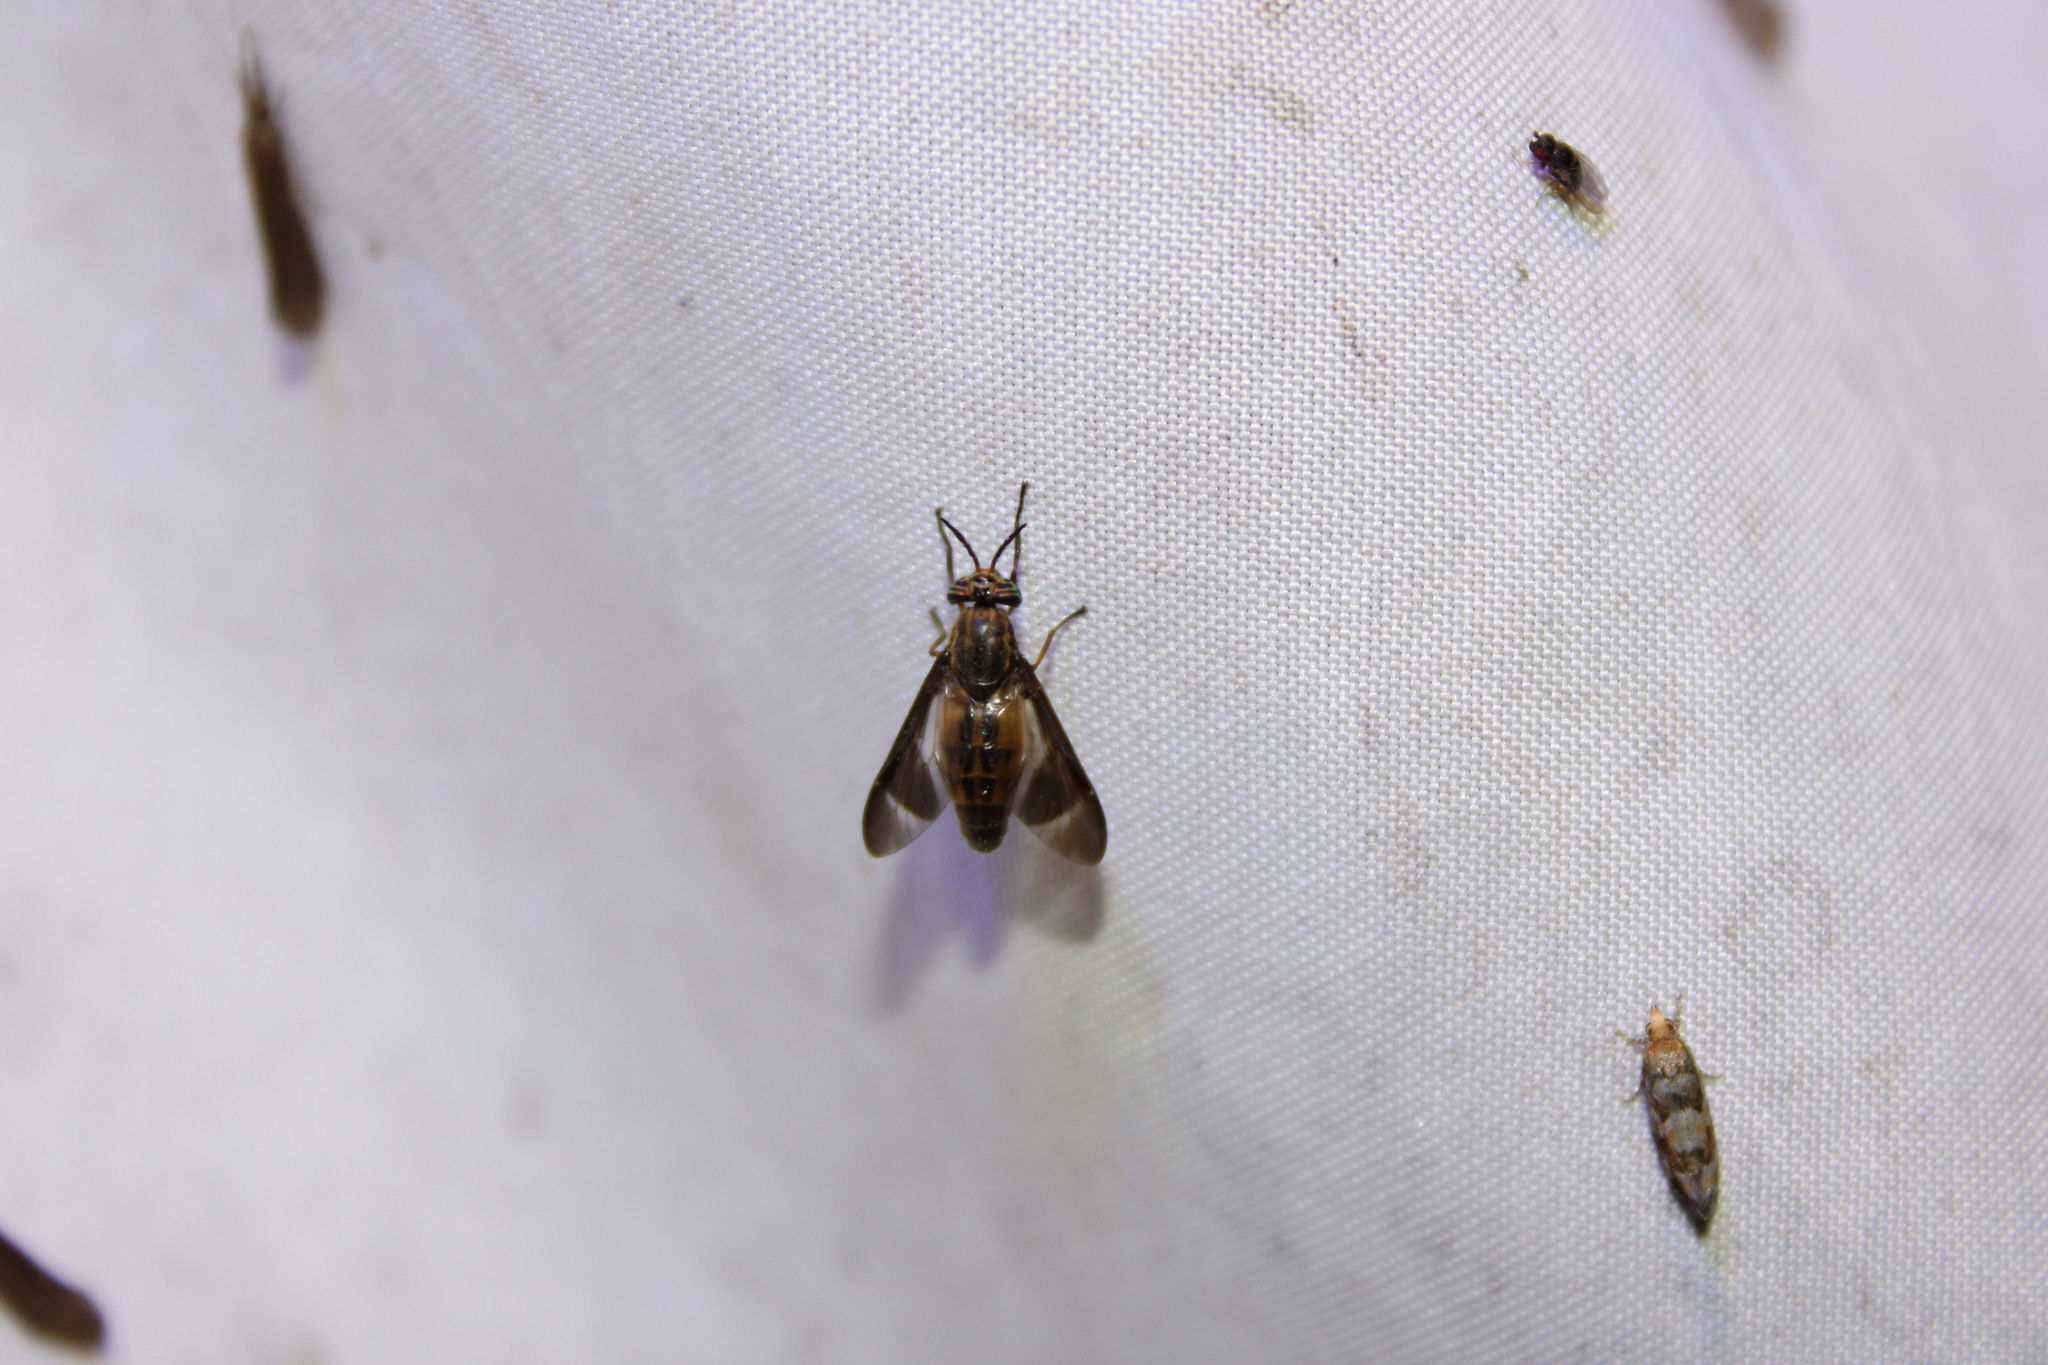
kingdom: Animalia
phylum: Arthropoda
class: Insecta
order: Diptera
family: Tabanidae
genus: Chrysops
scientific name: Chrysops pikei
